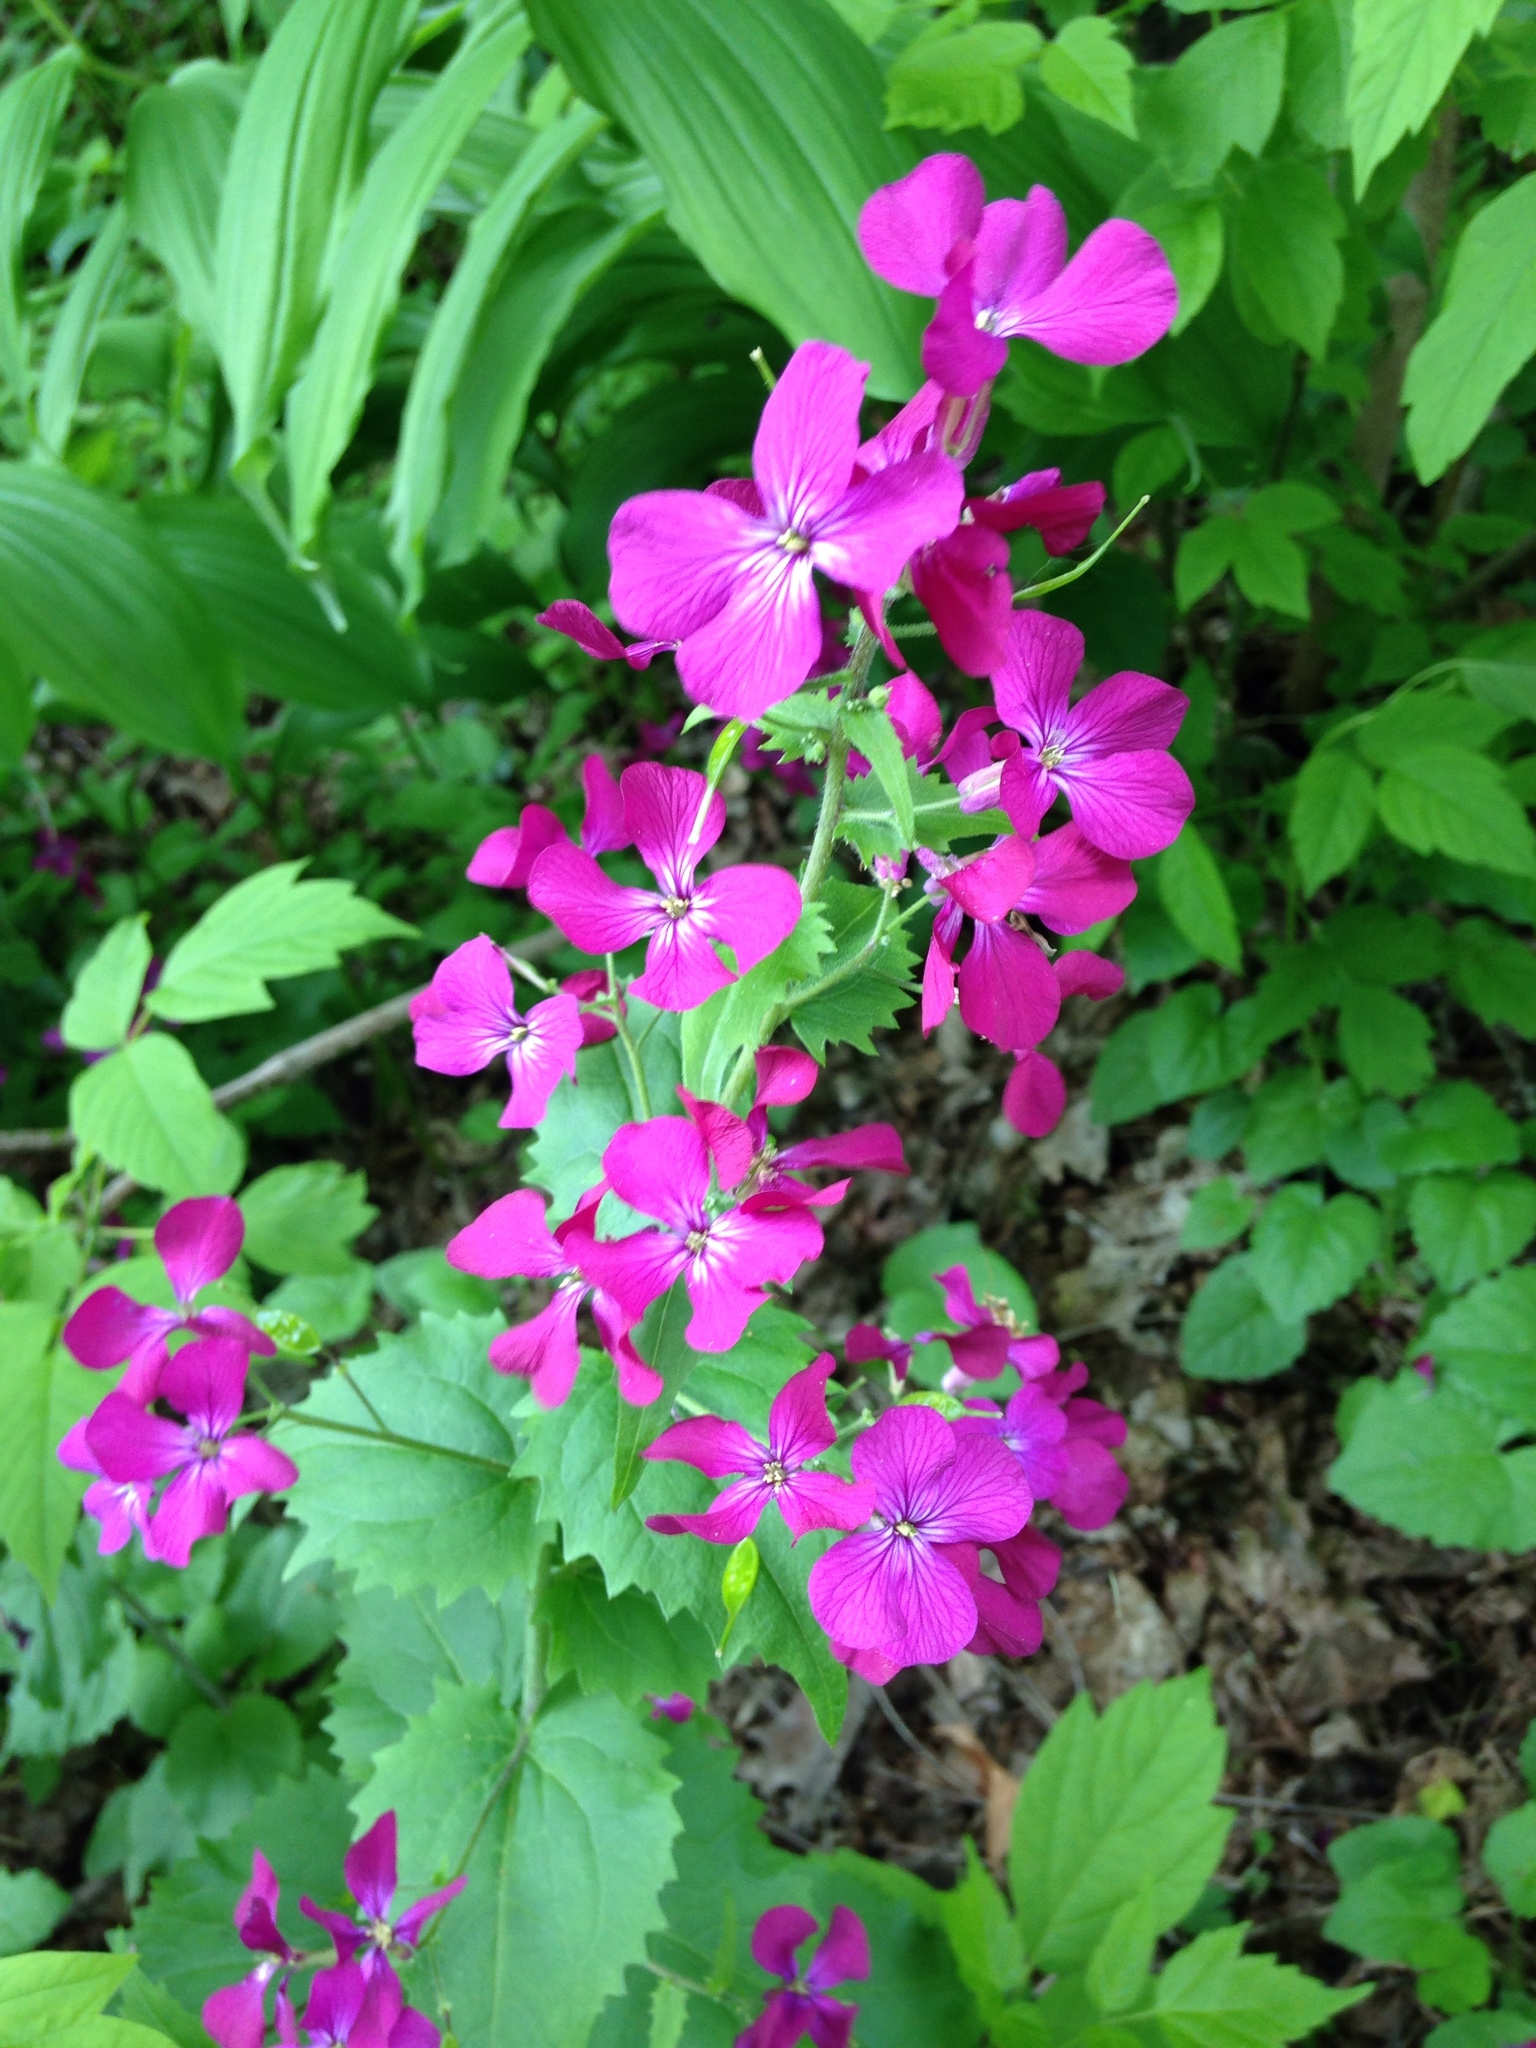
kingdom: Plantae
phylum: Tracheophyta
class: Magnoliopsida
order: Brassicales
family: Brassicaceae
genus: Lunaria
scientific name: Lunaria annua
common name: Honesty
